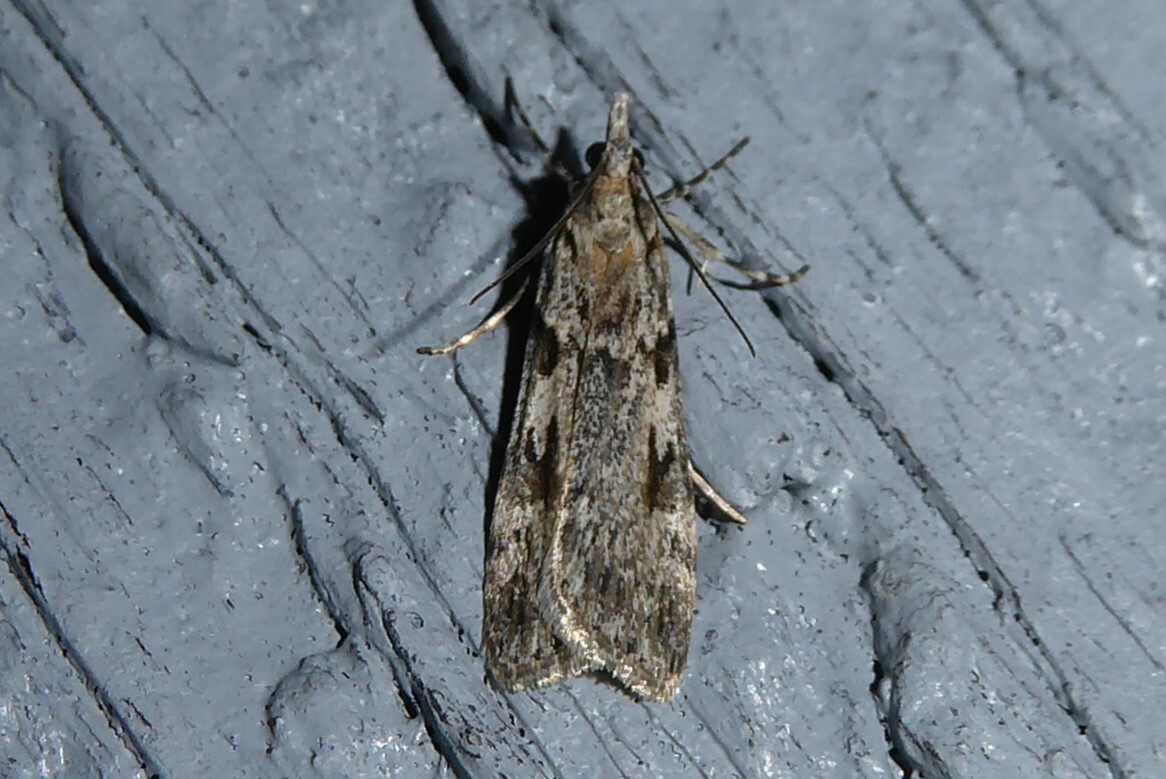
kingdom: Animalia
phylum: Arthropoda
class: Insecta
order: Lepidoptera
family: Crambidae
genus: Scoparia
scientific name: Scoparia halopis
